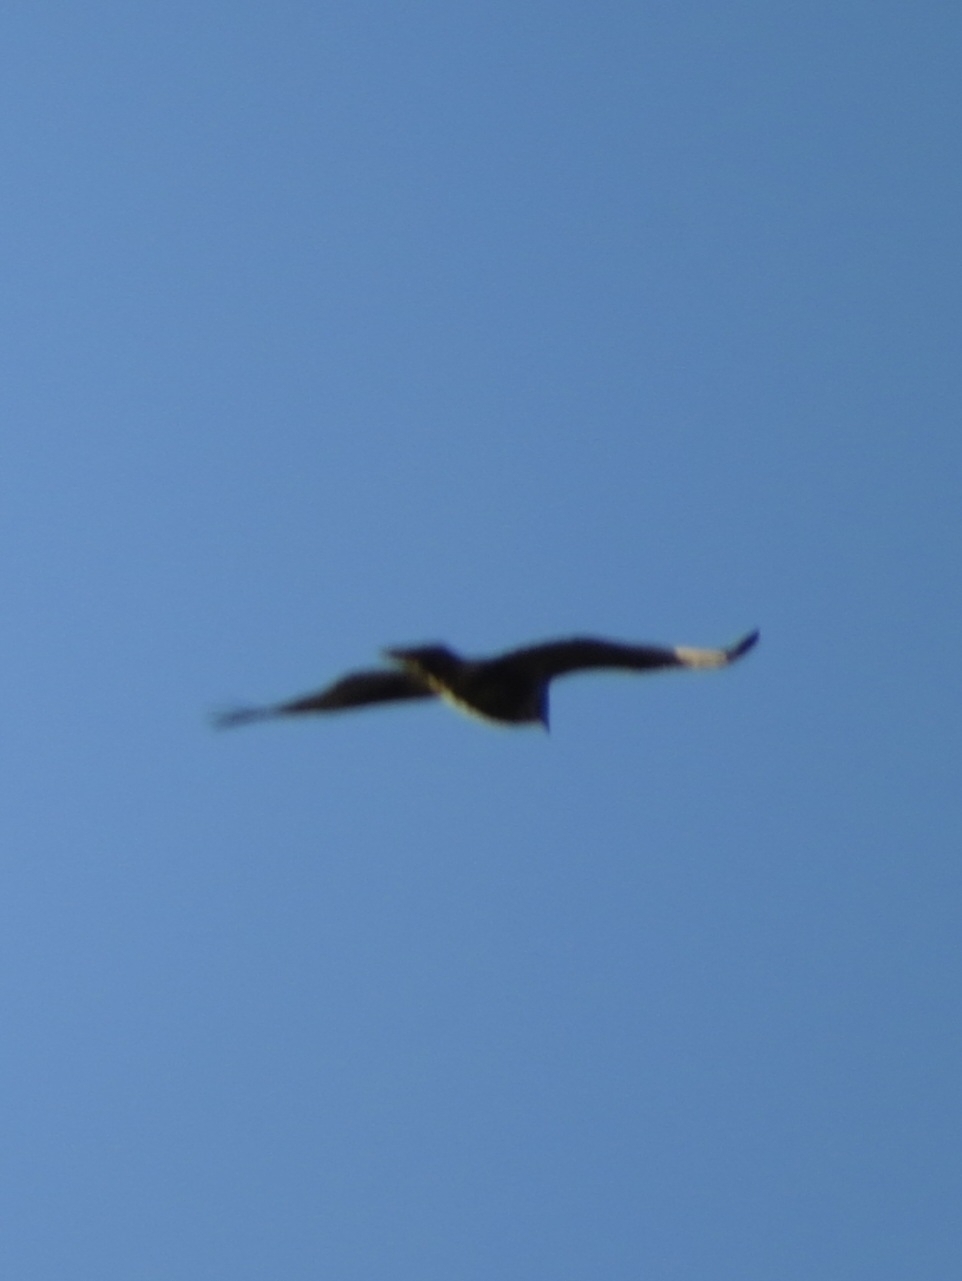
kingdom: Animalia
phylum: Chordata
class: Aves
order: Accipitriformes
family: Accipitridae
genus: Buteo
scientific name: Buteo buteo
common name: Common buzzard
